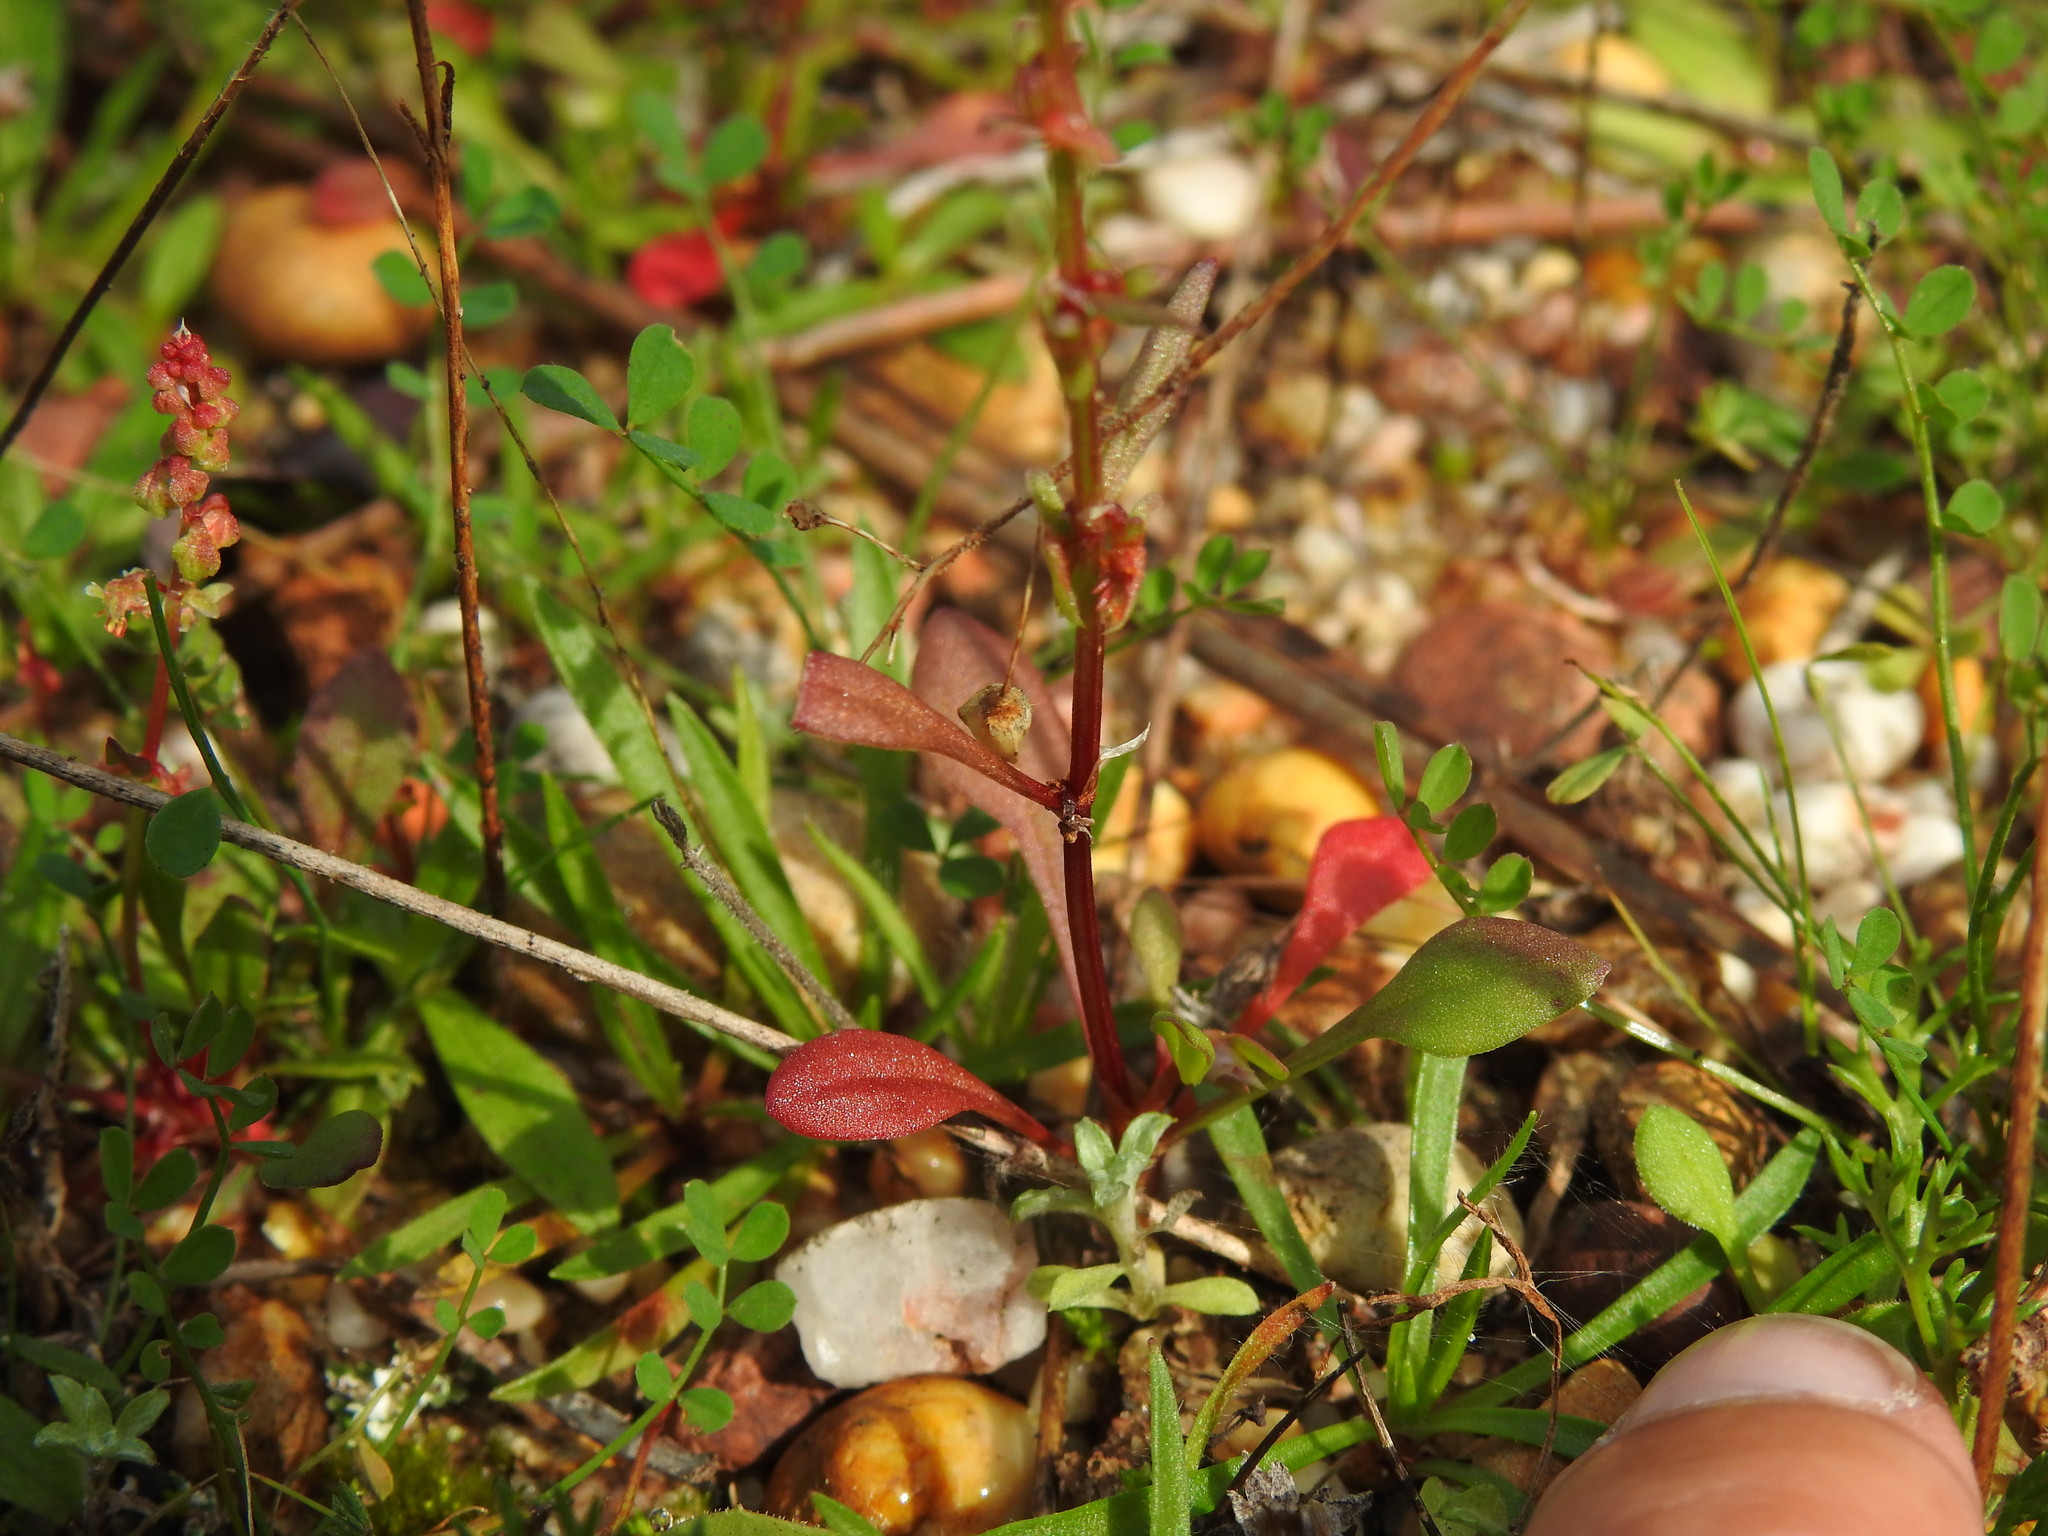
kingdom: Plantae
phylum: Tracheophyta
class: Magnoliopsida
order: Caryophyllales
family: Polygonaceae
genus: Rumex
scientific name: Rumex bucephalophorus
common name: Red dock
